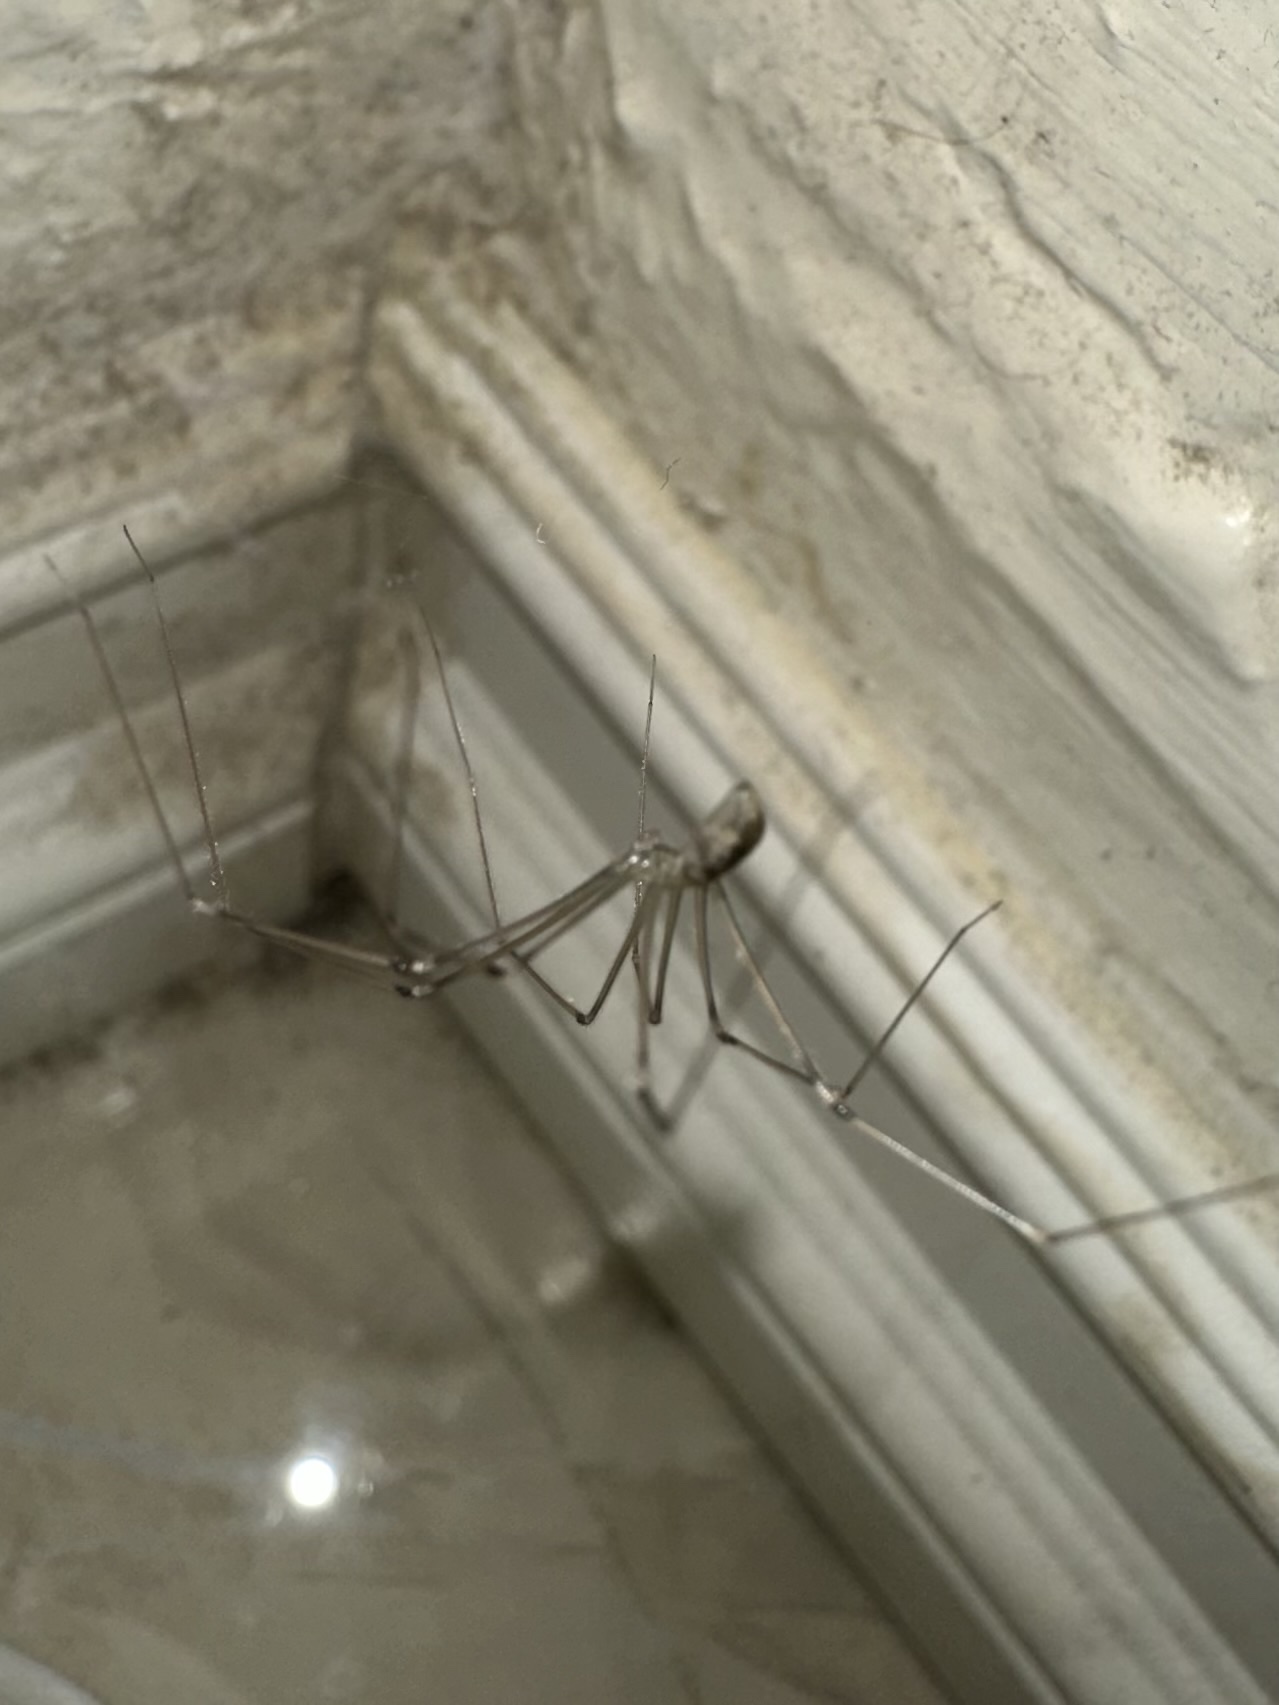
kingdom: Animalia
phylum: Arthropoda
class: Arachnida
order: Araneae
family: Pholcidae
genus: Pholcus
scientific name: Pholcus phalangioides
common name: Longbodied cellar spider
